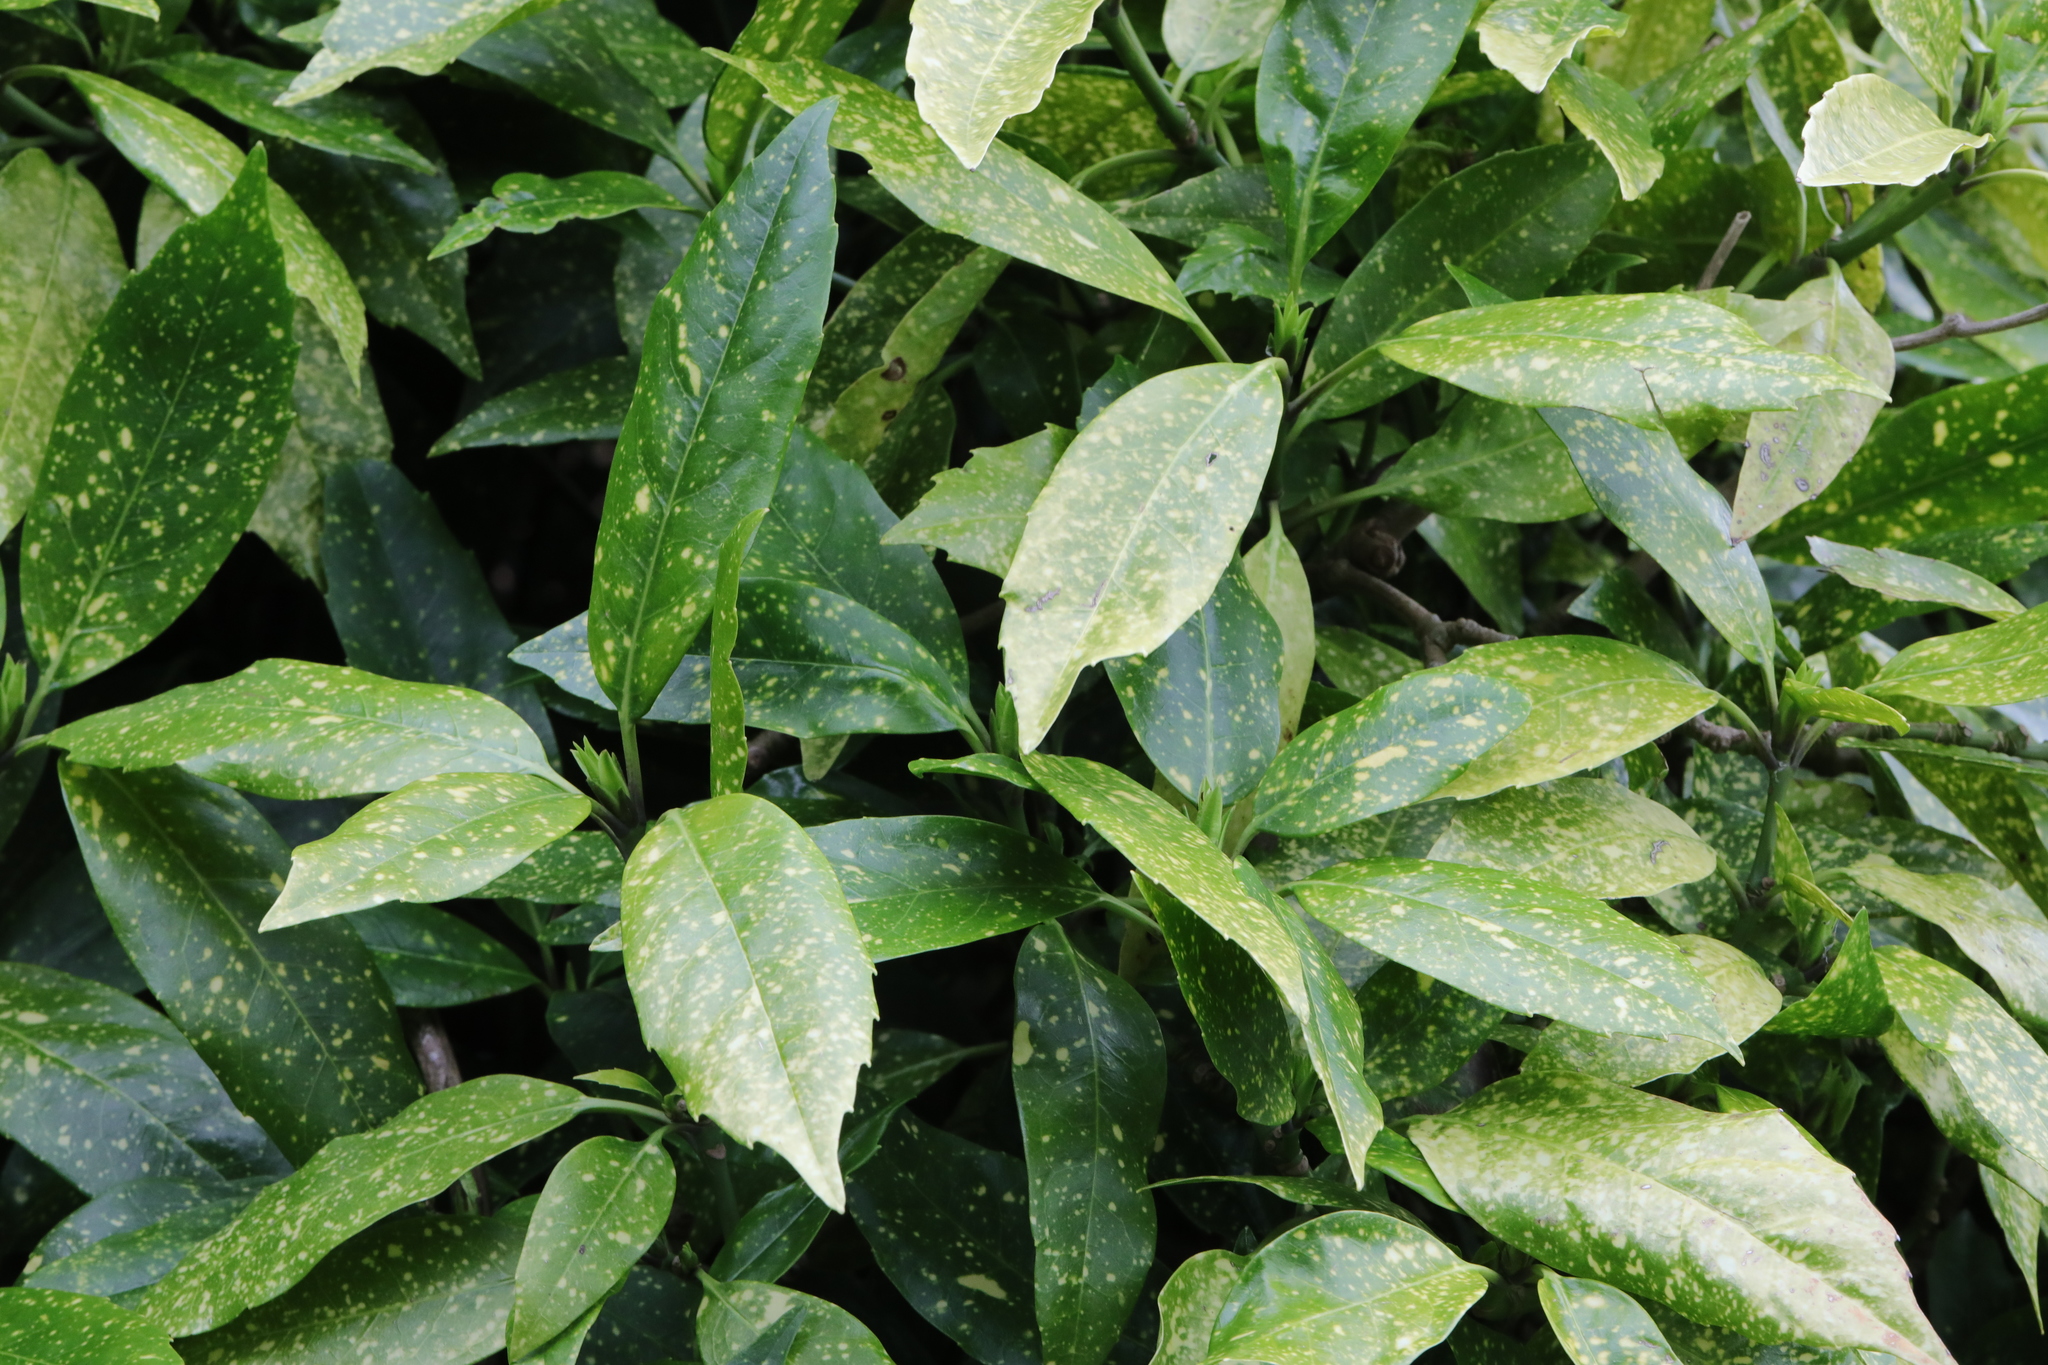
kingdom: Plantae
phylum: Tracheophyta
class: Magnoliopsida
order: Garryales
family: Garryaceae
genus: Aucuba
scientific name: Aucuba japonica
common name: Spotted-laurel
